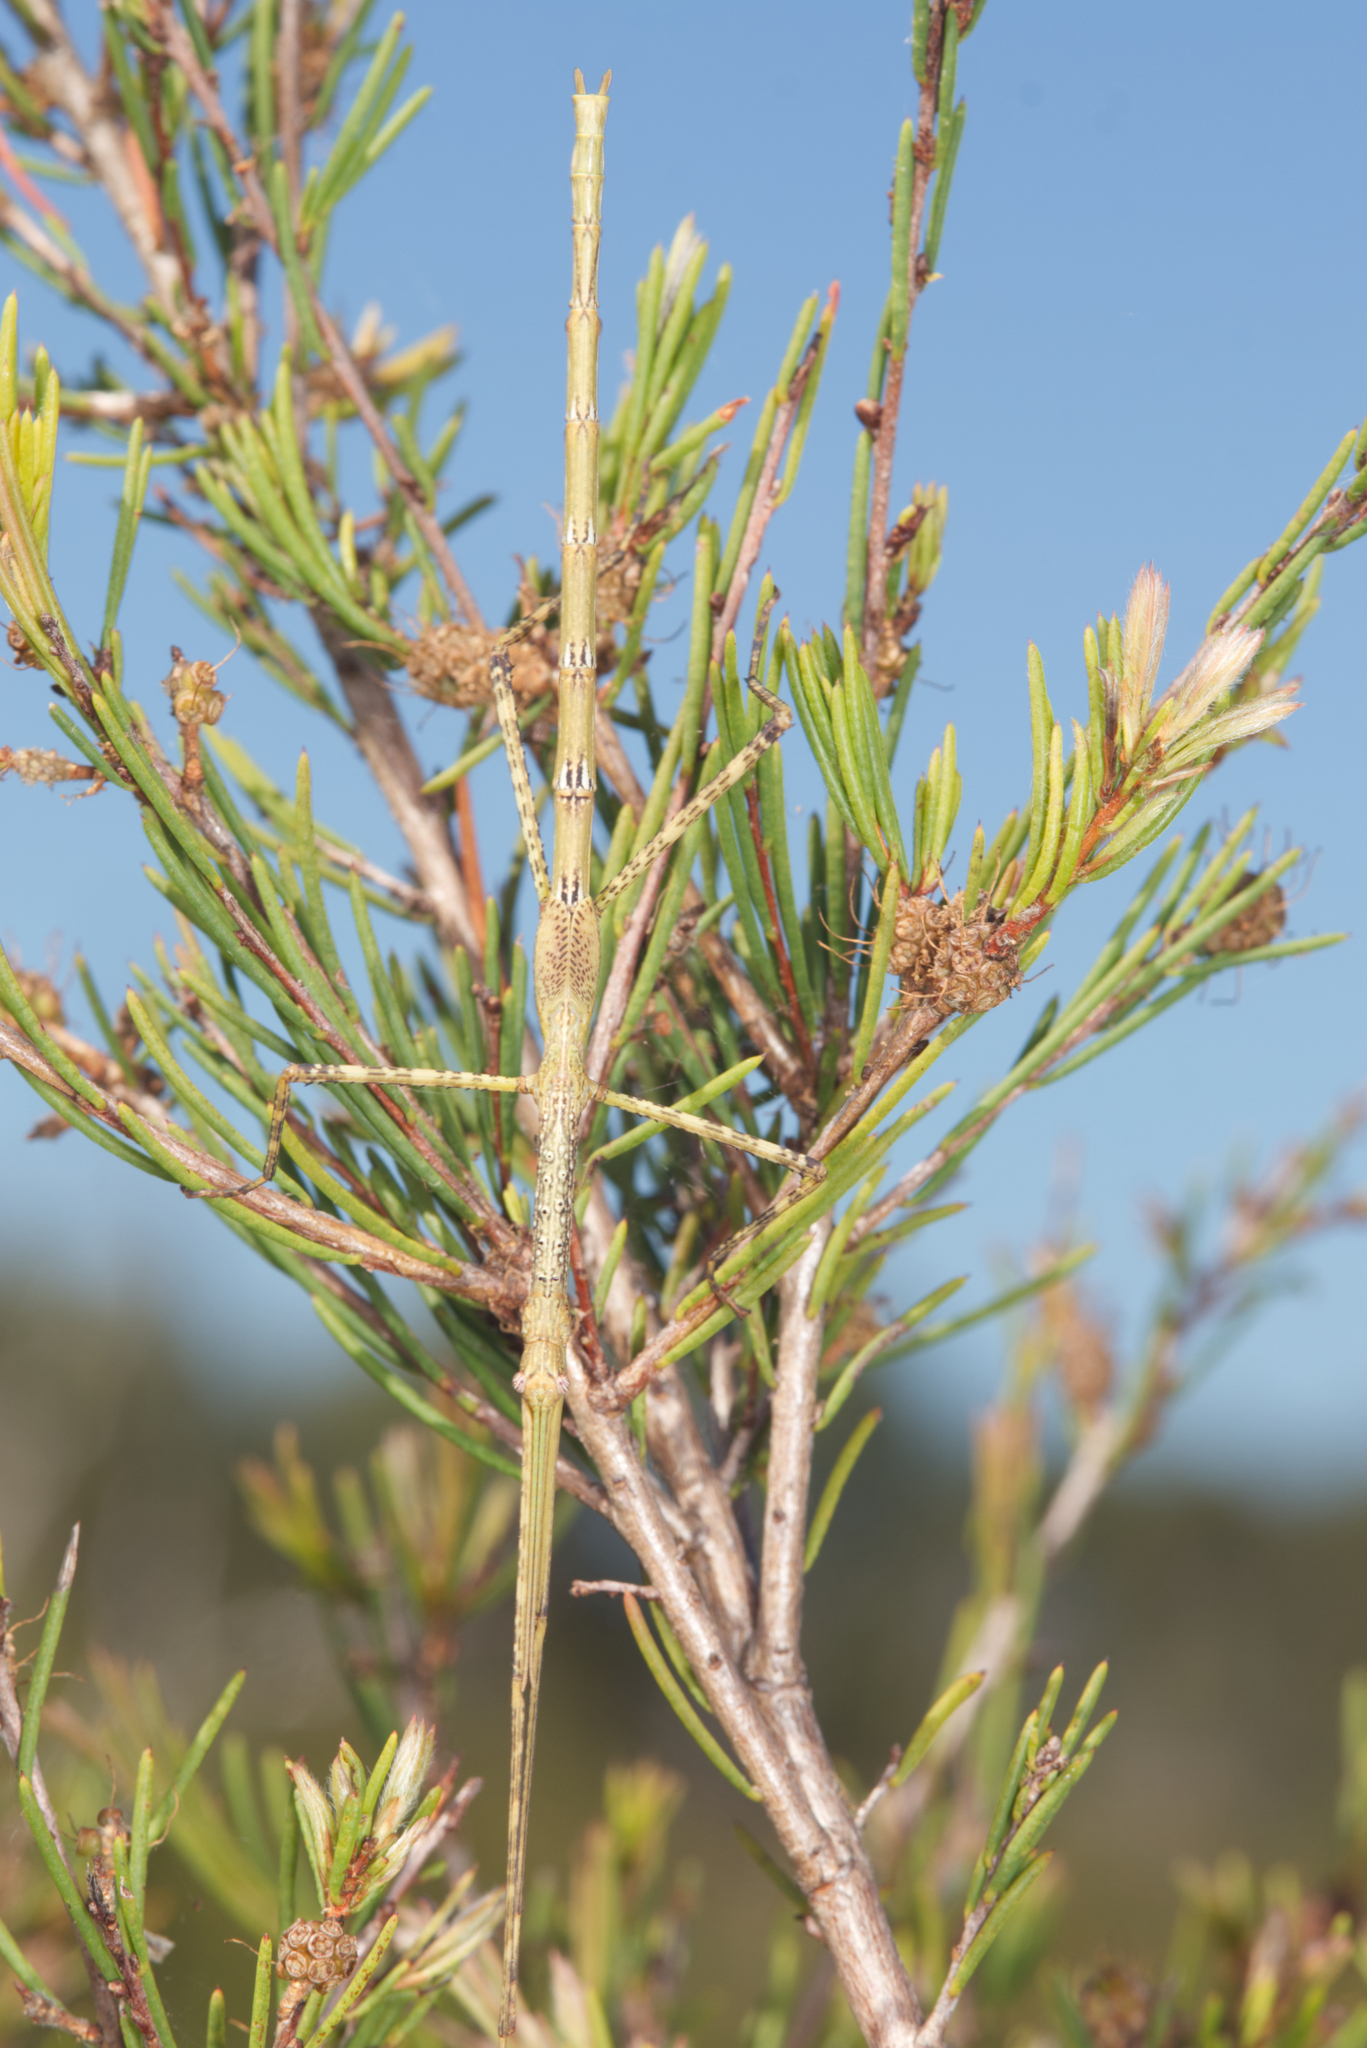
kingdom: Animalia
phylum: Arthropoda
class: Insecta
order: Phasmida
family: Phasmatidae
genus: Anchiale
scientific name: Anchiale austrotessulata
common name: Tessellated stick-insect
